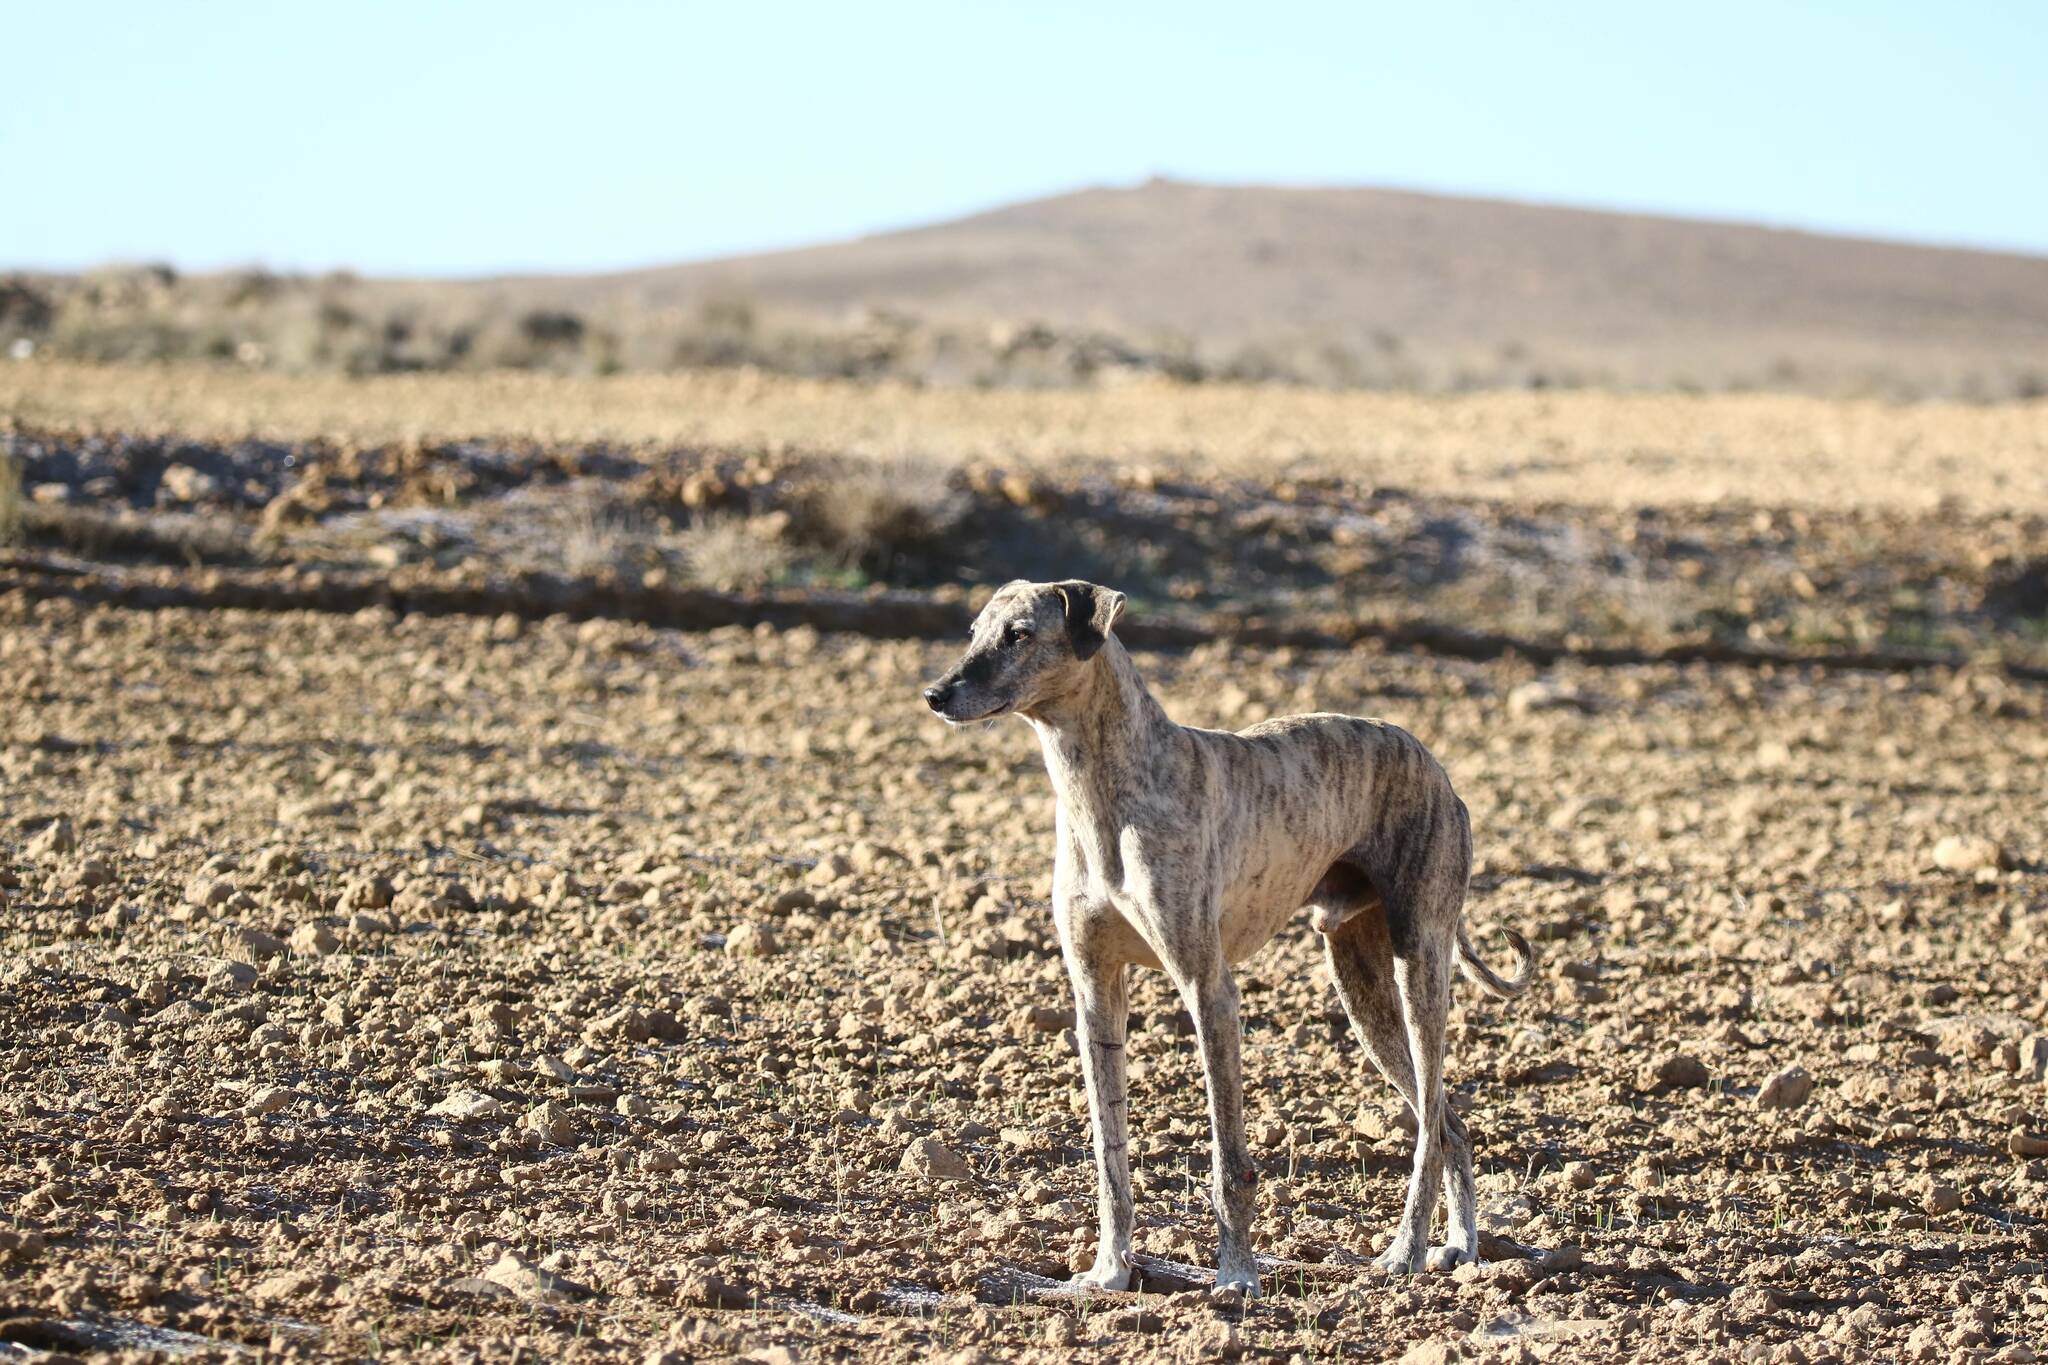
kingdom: Animalia
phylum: Chordata
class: Mammalia
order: Carnivora
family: Canidae
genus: Canis
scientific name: Canis lupus
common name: Gray wolf
